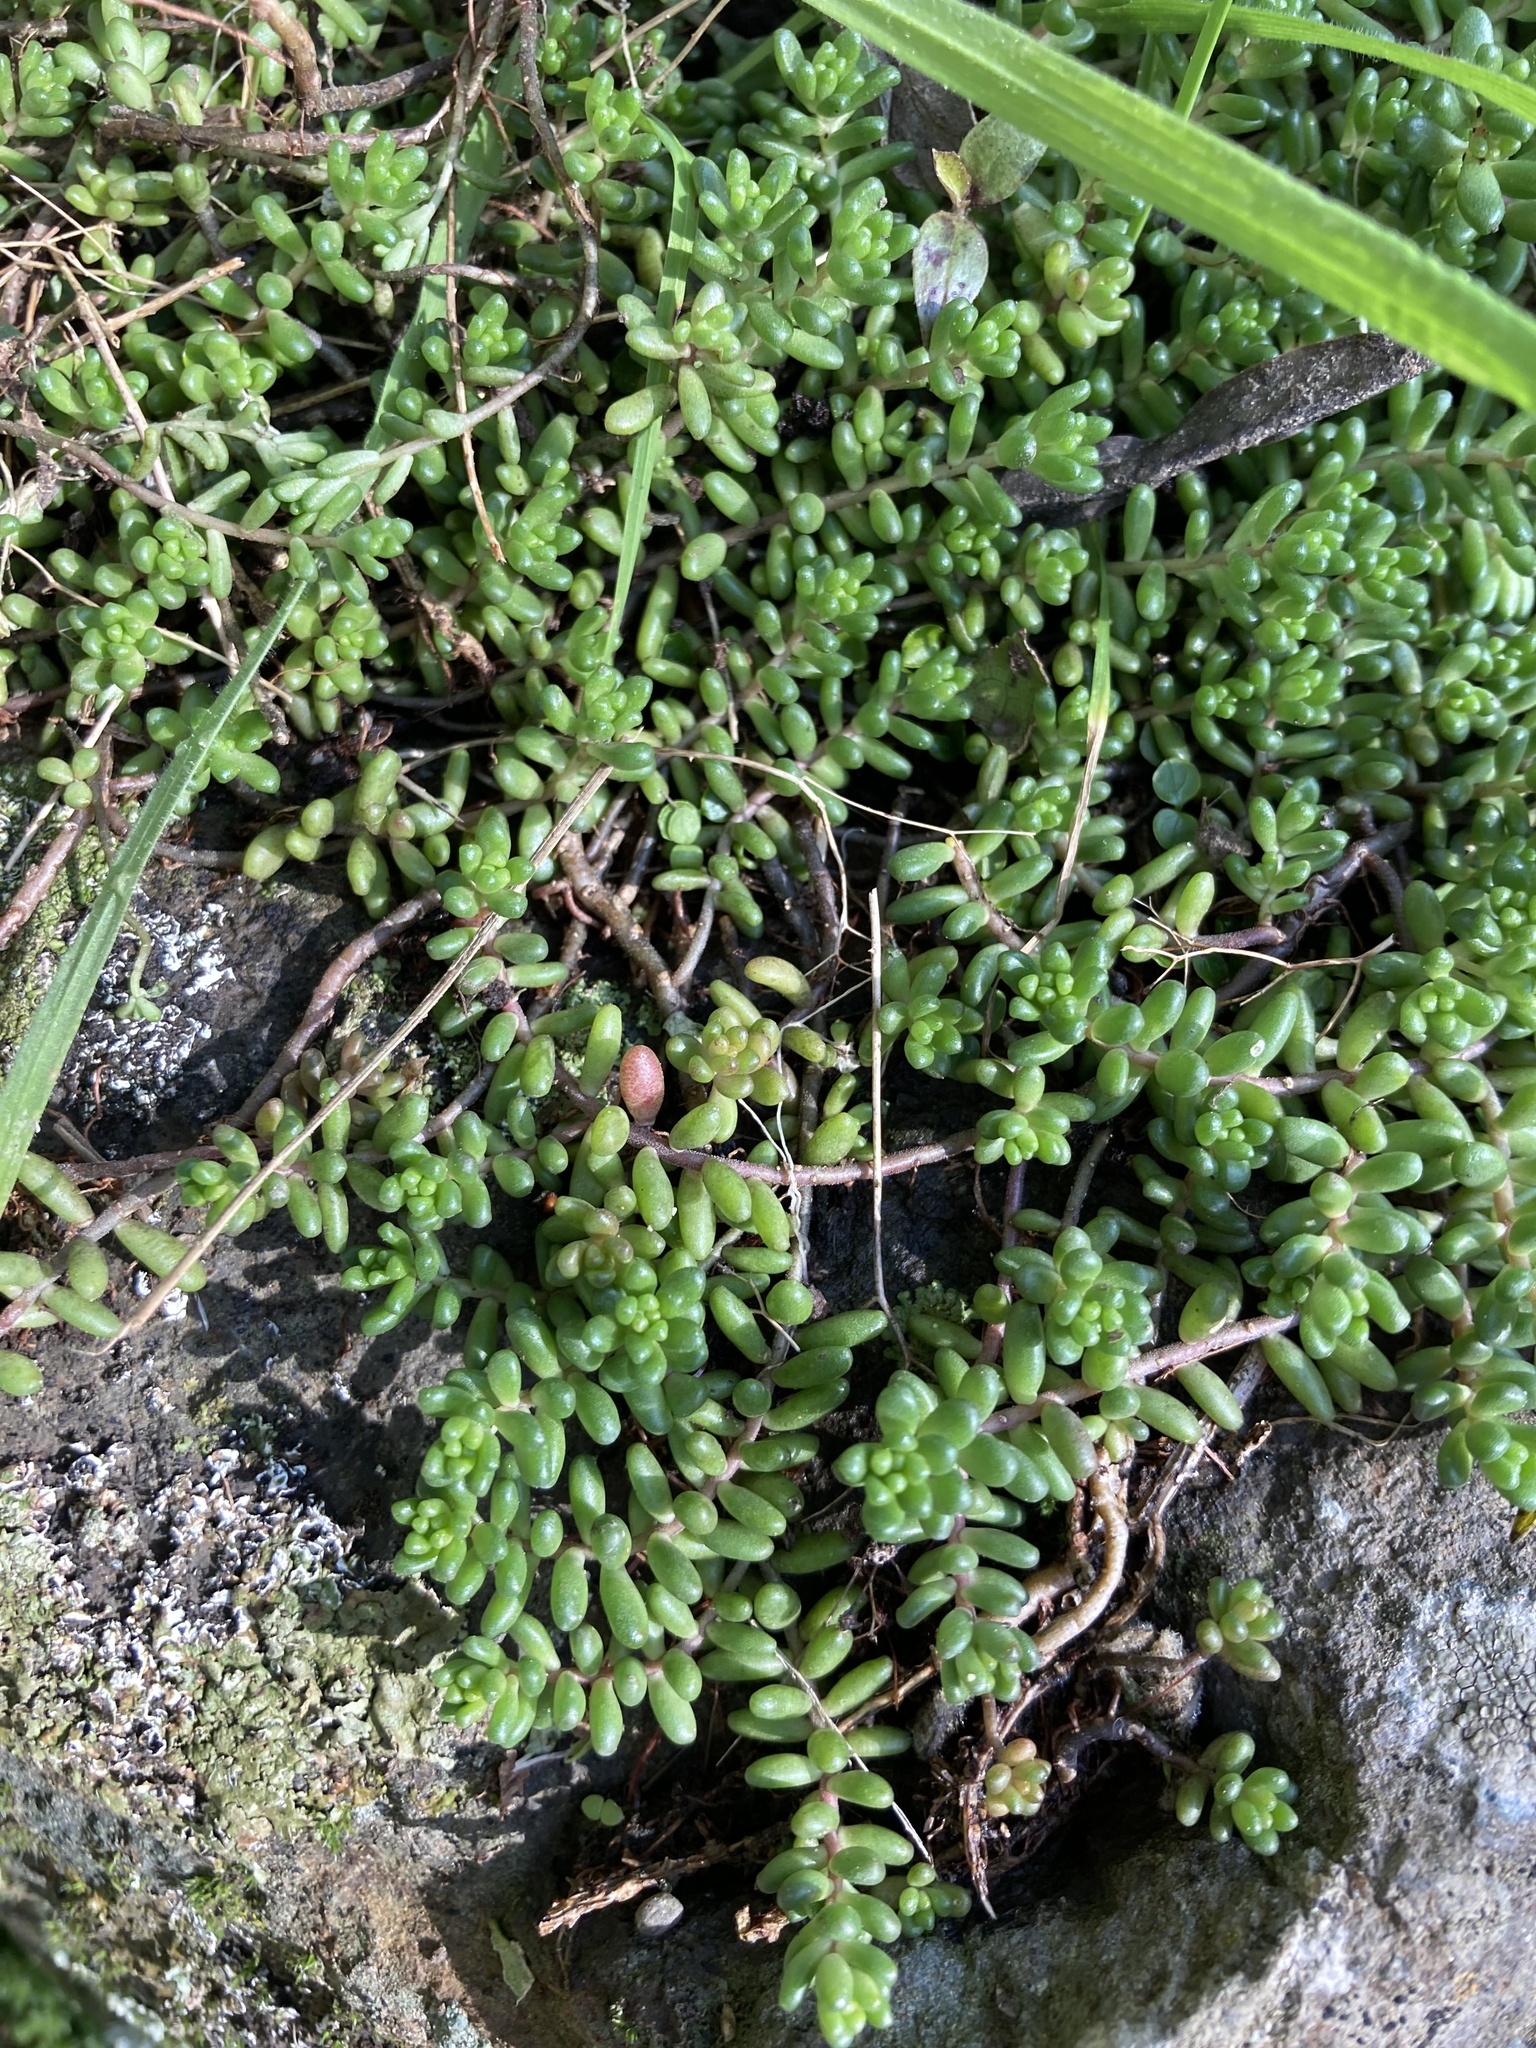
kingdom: Plantae
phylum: Tracheophyta
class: Magnoliopsida
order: Saxifragales
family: Crassulaceae
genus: Sedum
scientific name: Sedum album
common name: White stonecrop
